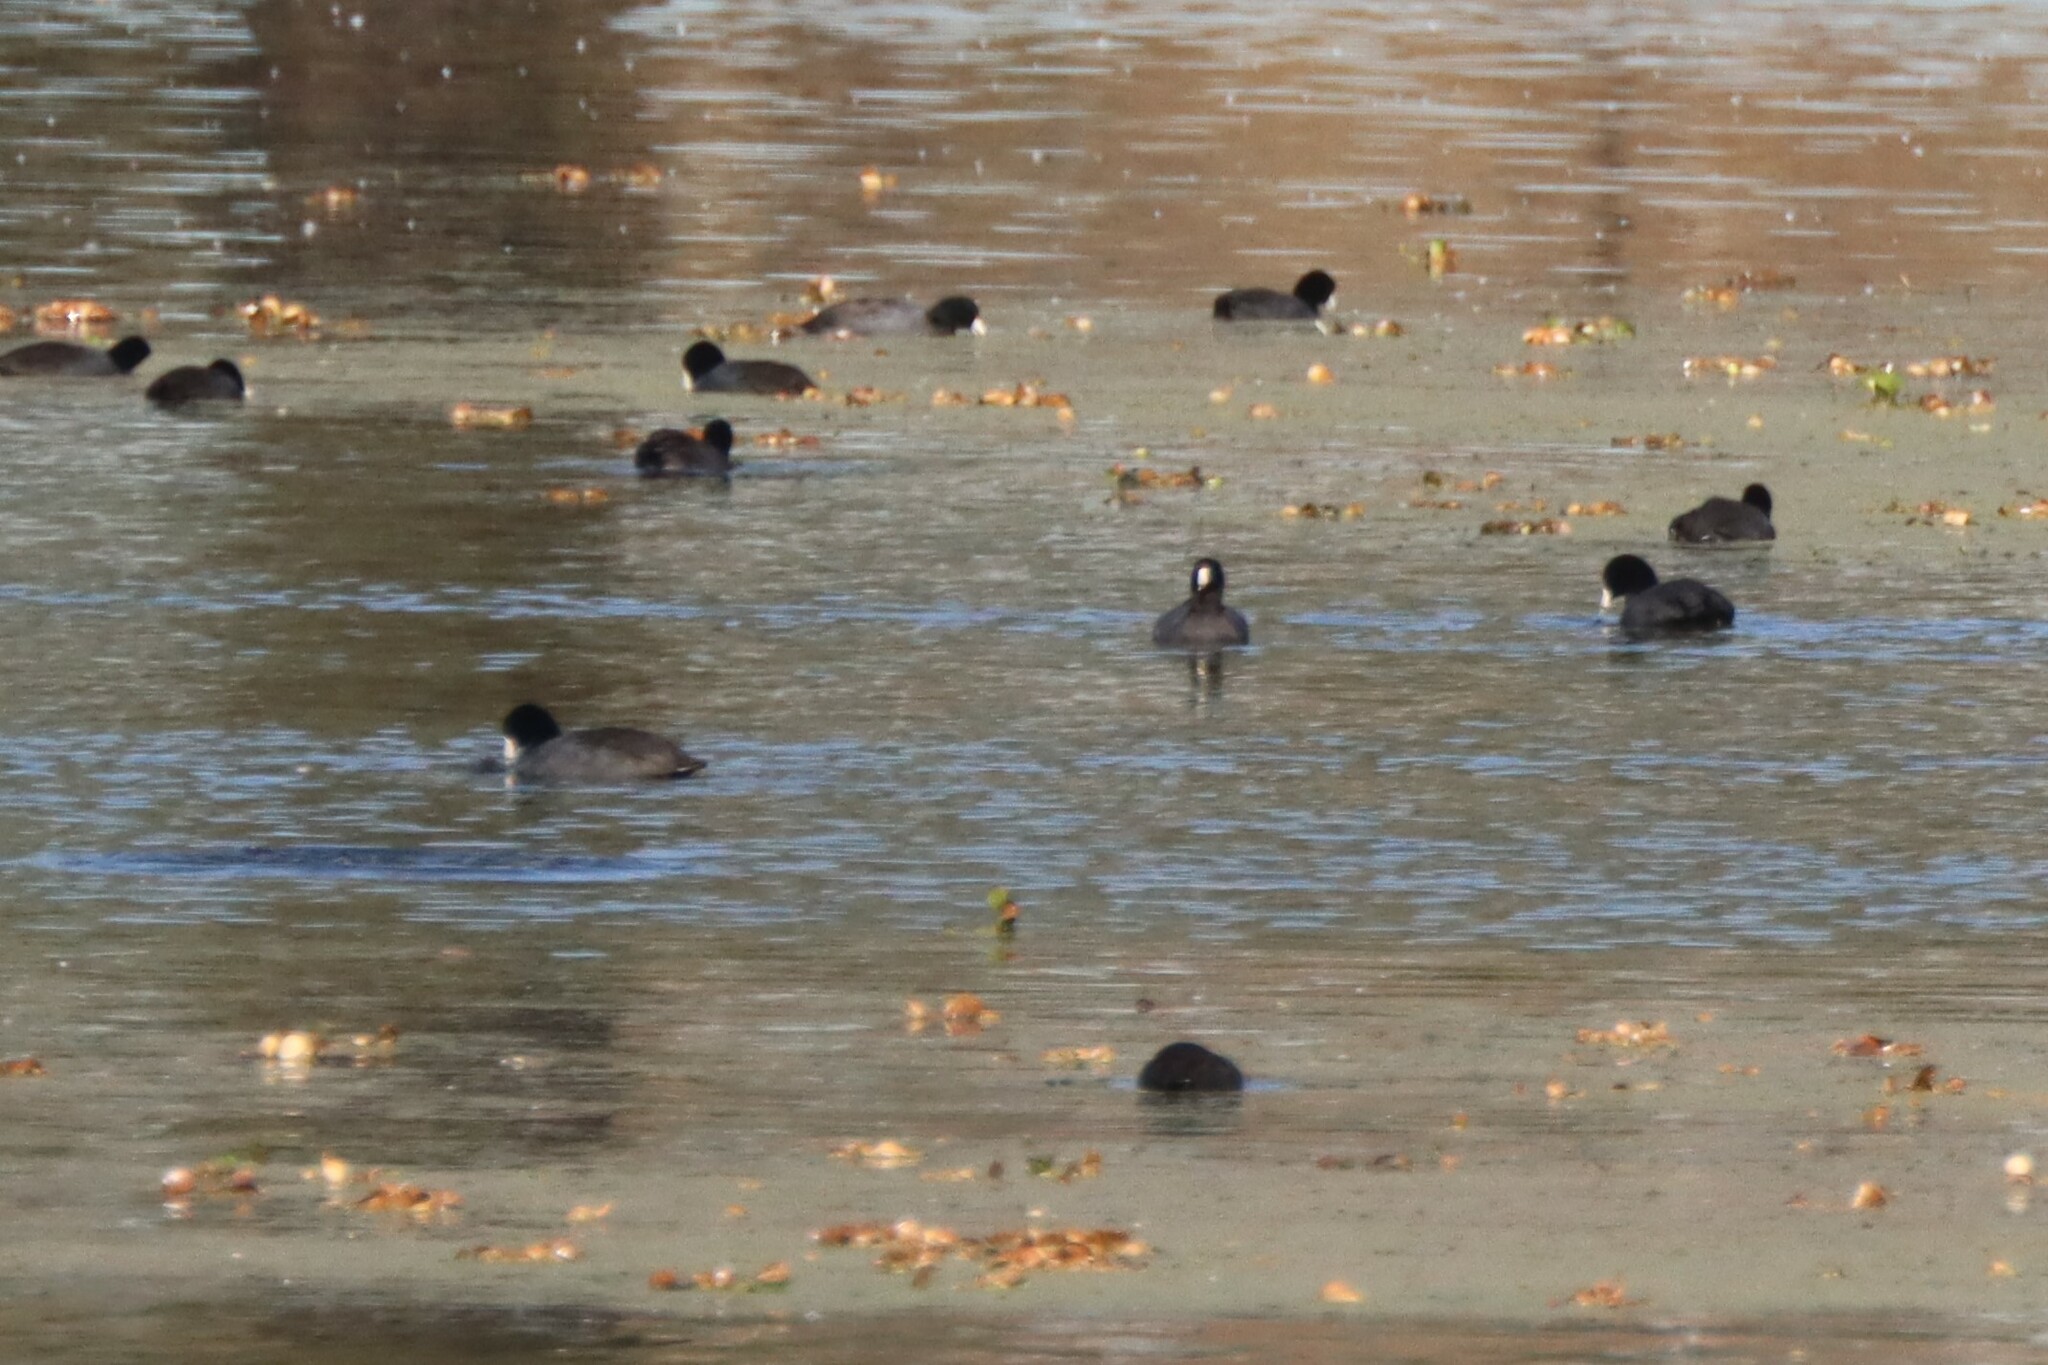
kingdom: Animalia
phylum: Chordata
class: Aves
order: Gruiformes
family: Rallidae
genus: Fulica
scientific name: Fulica americana
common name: American coot
